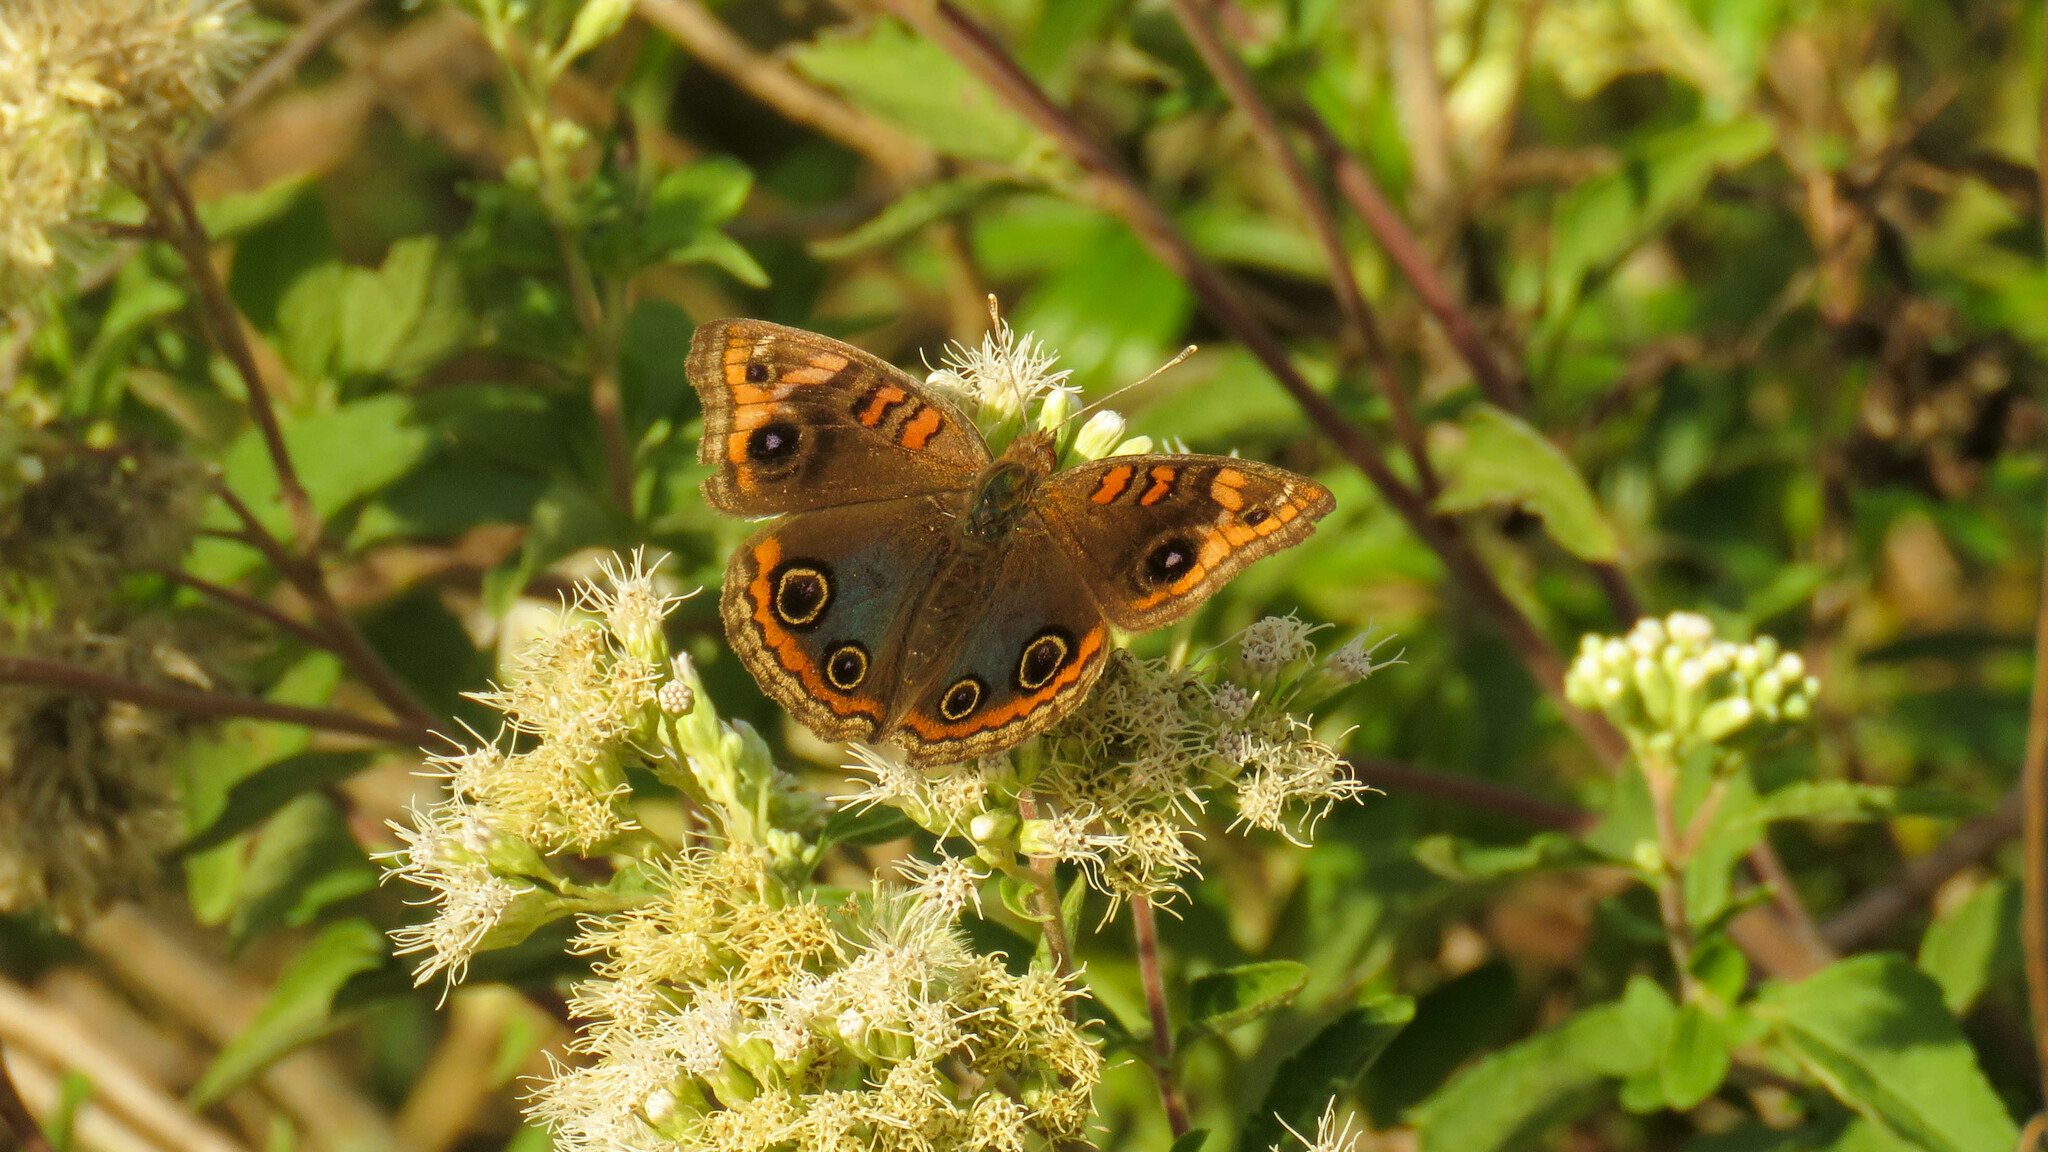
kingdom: Animalia
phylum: Arthropoda
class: Insecta
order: Lepidoptera
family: Nymphalidae
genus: Junonia
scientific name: Junonia lavinia
